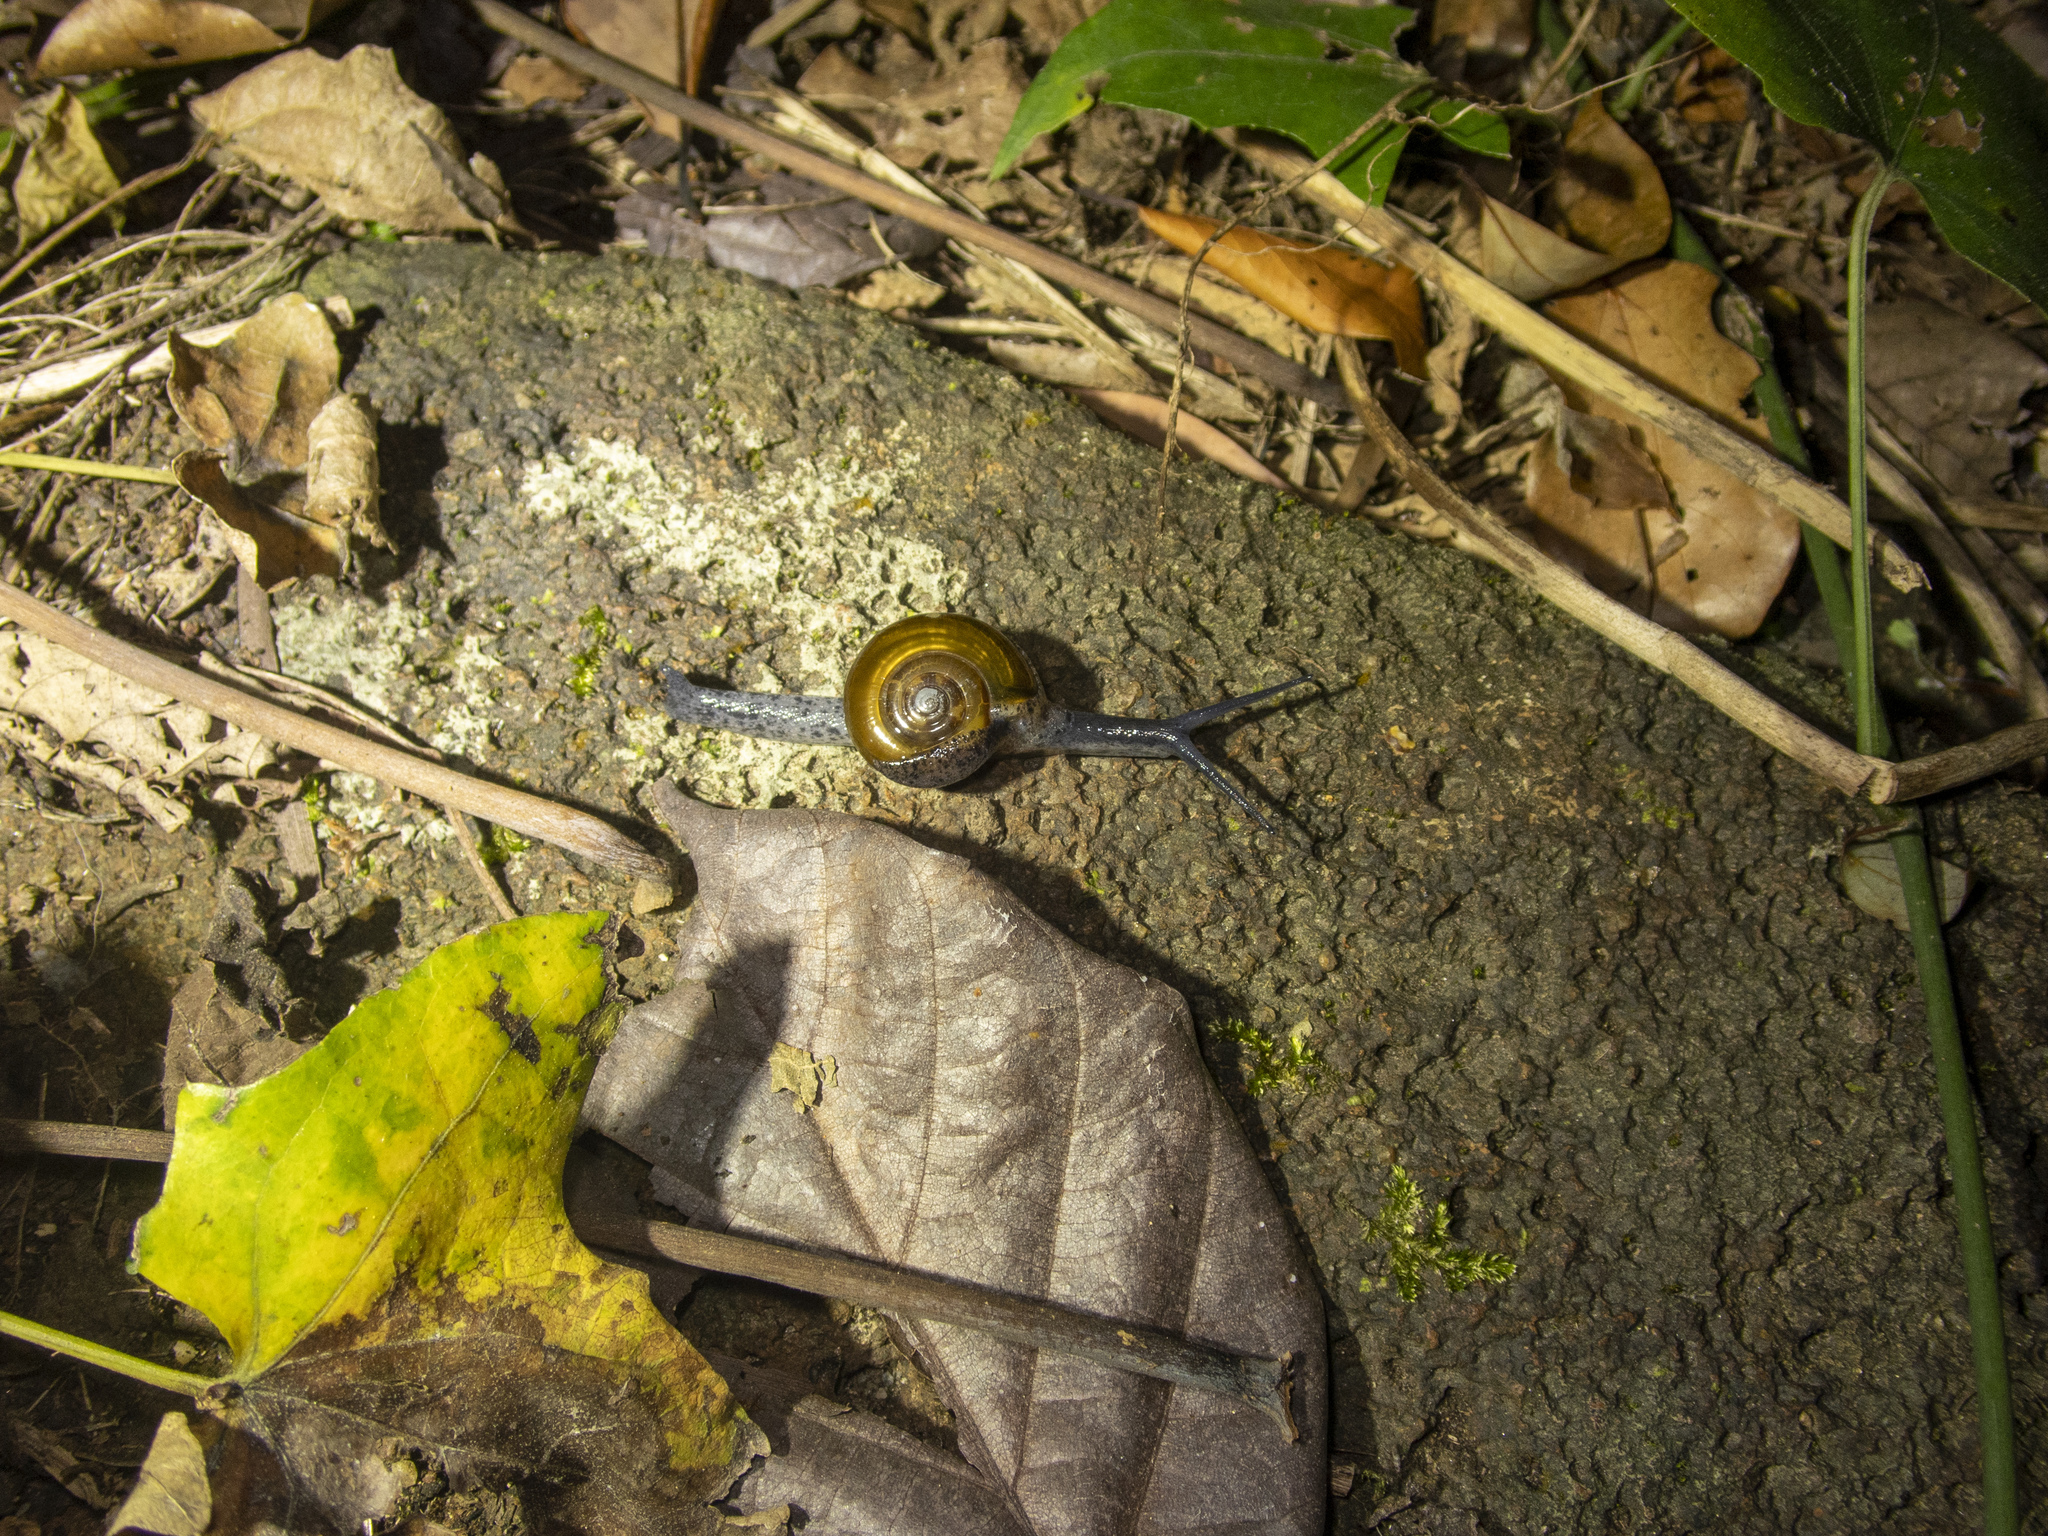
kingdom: Animalia
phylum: Mollusca
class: Gastropoda
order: Stylommatophora
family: Ariophantidae
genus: Macrochlamys
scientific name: Macrochlamys superlita
